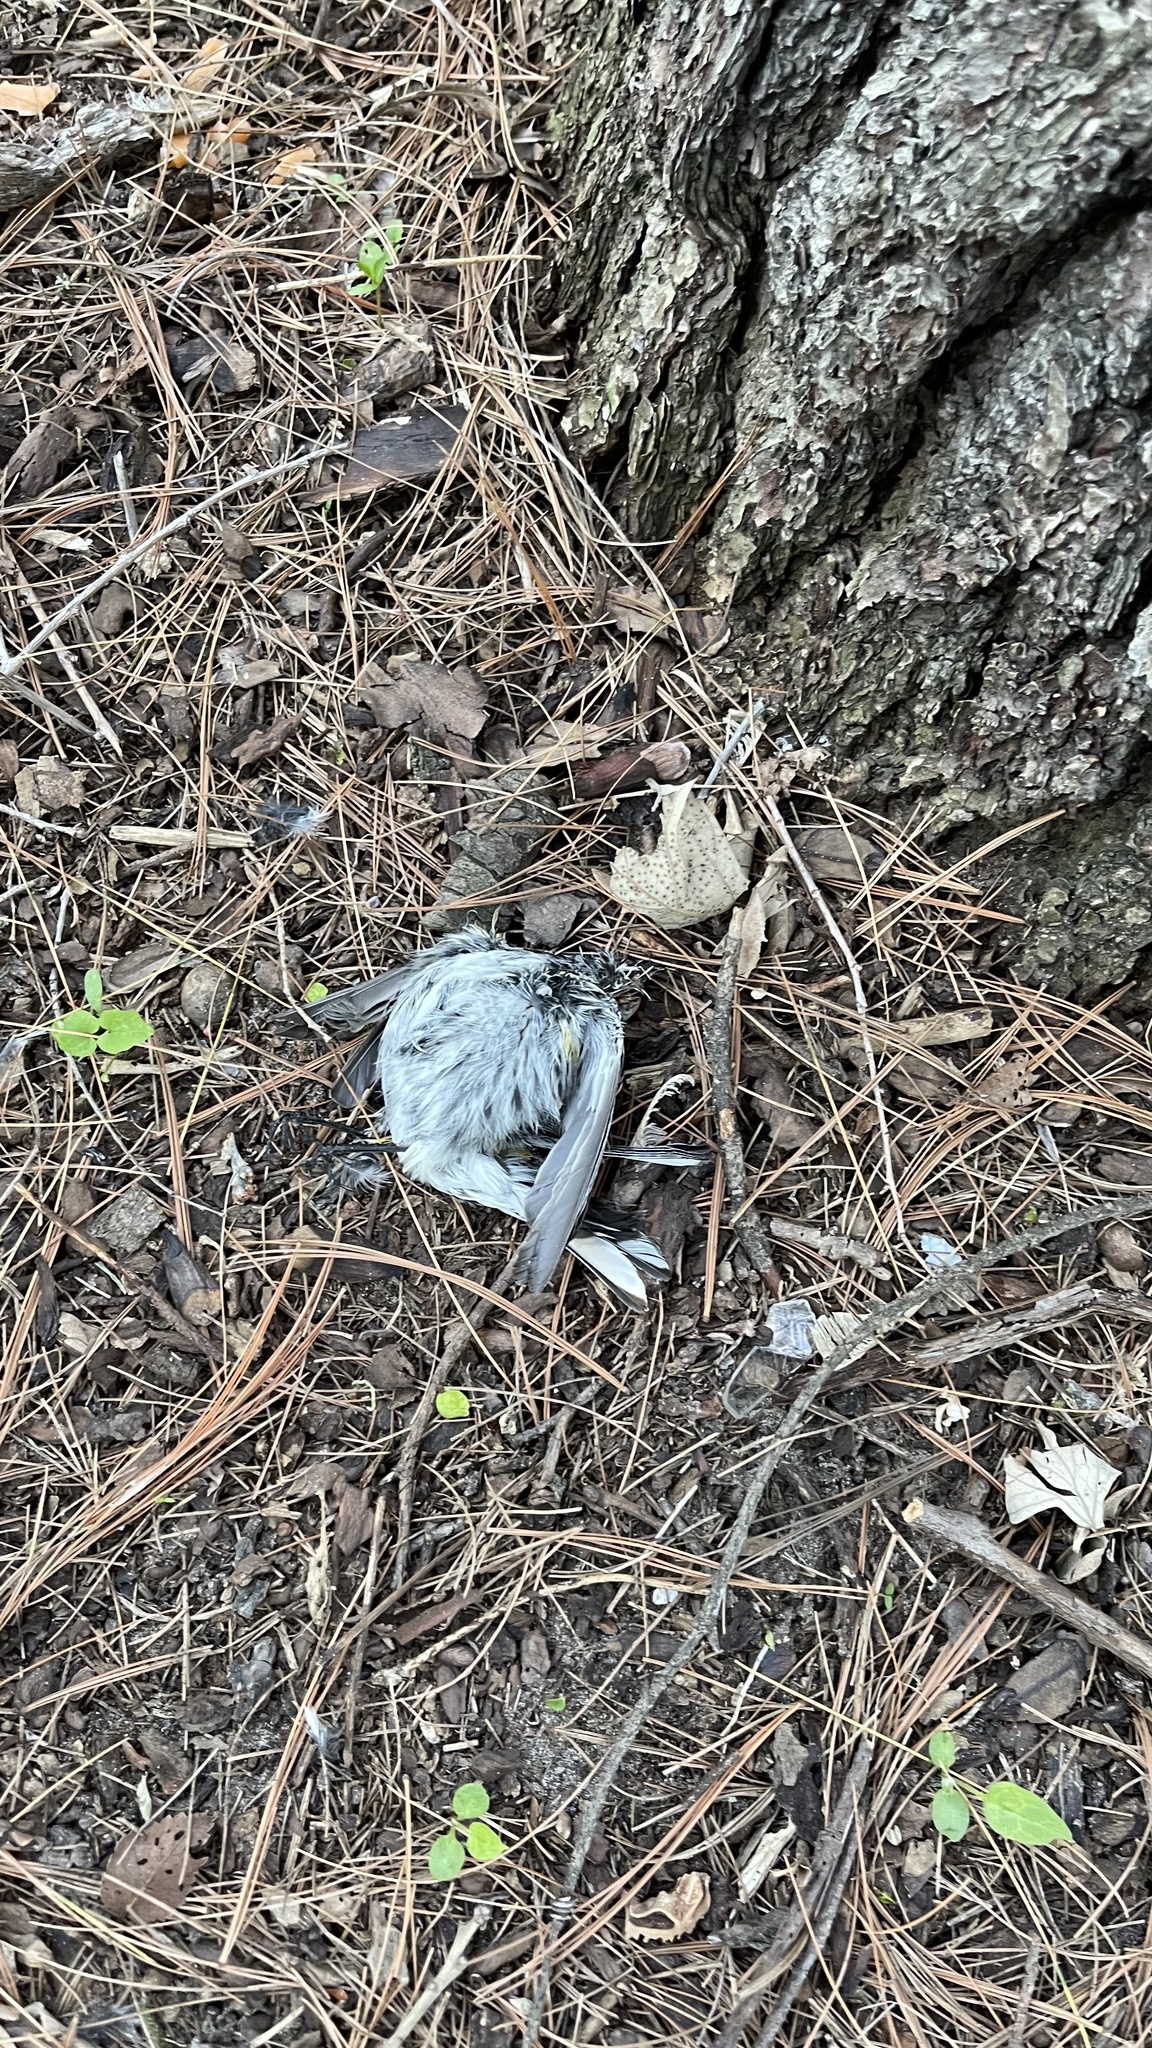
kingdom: Animalia
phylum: Chordata
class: Aves
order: Passeriformes
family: Parulidae
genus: Setophaga
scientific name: Setophaga coronata
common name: Myrtle warbler
